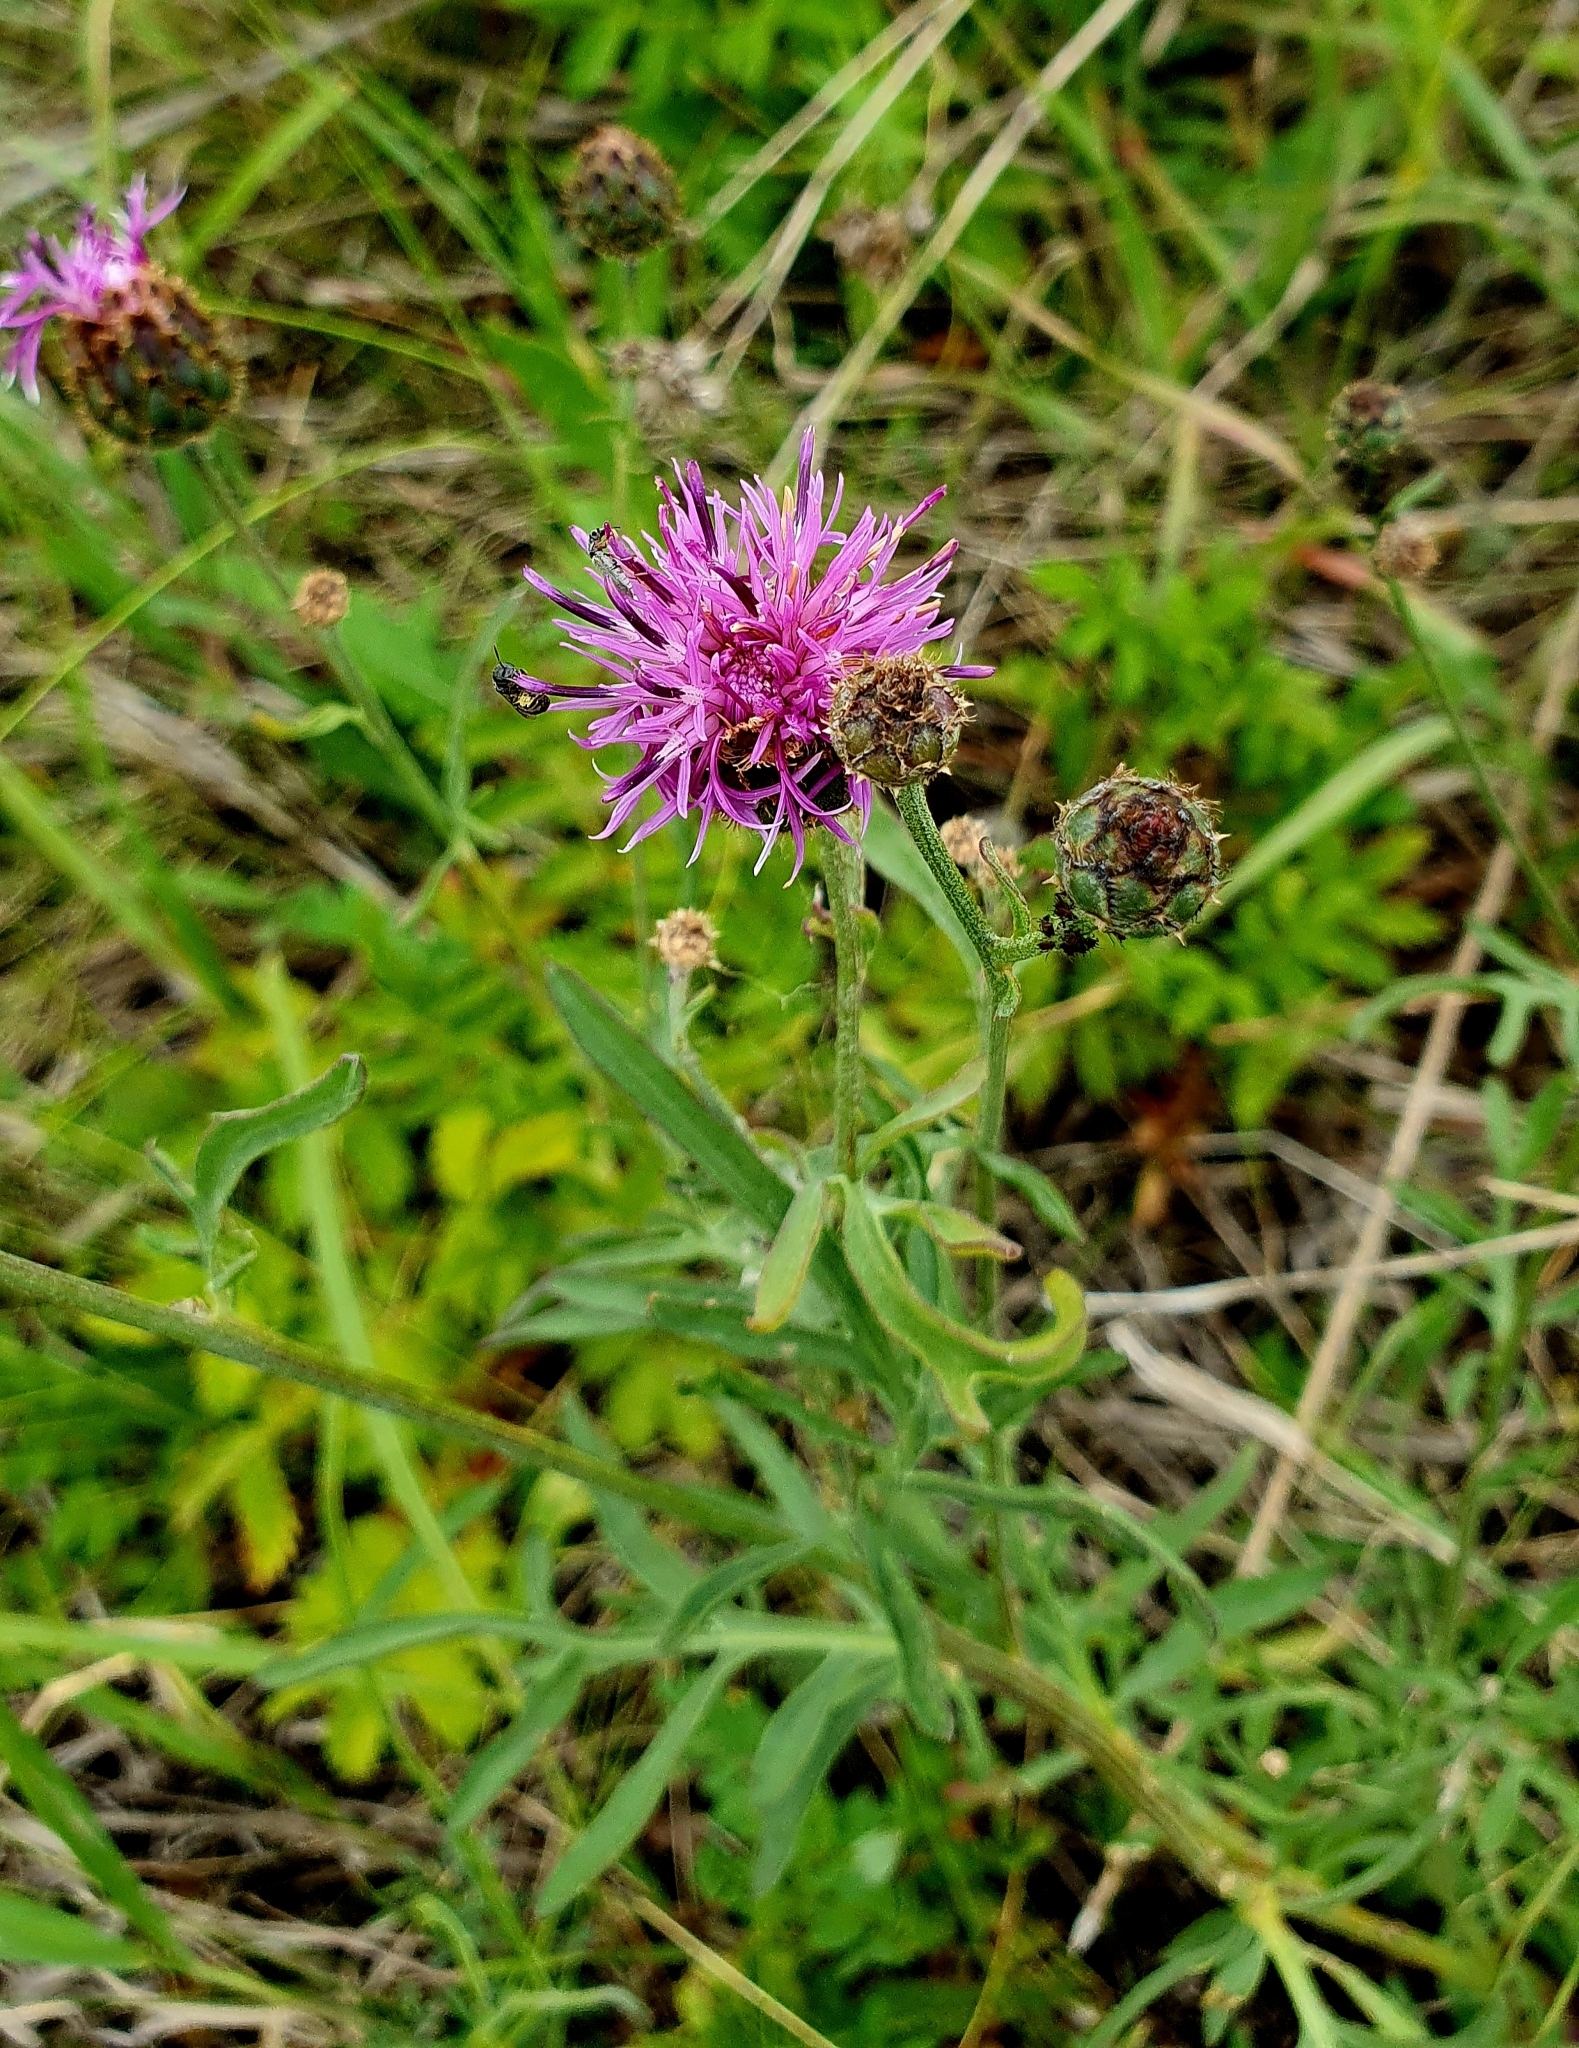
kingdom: Plantae
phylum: Tracheophyta
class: Magnoliopsida
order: Asterales
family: Asteraceae
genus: Centaurea
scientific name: Centaurea scabiosa
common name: Greater knapweed
